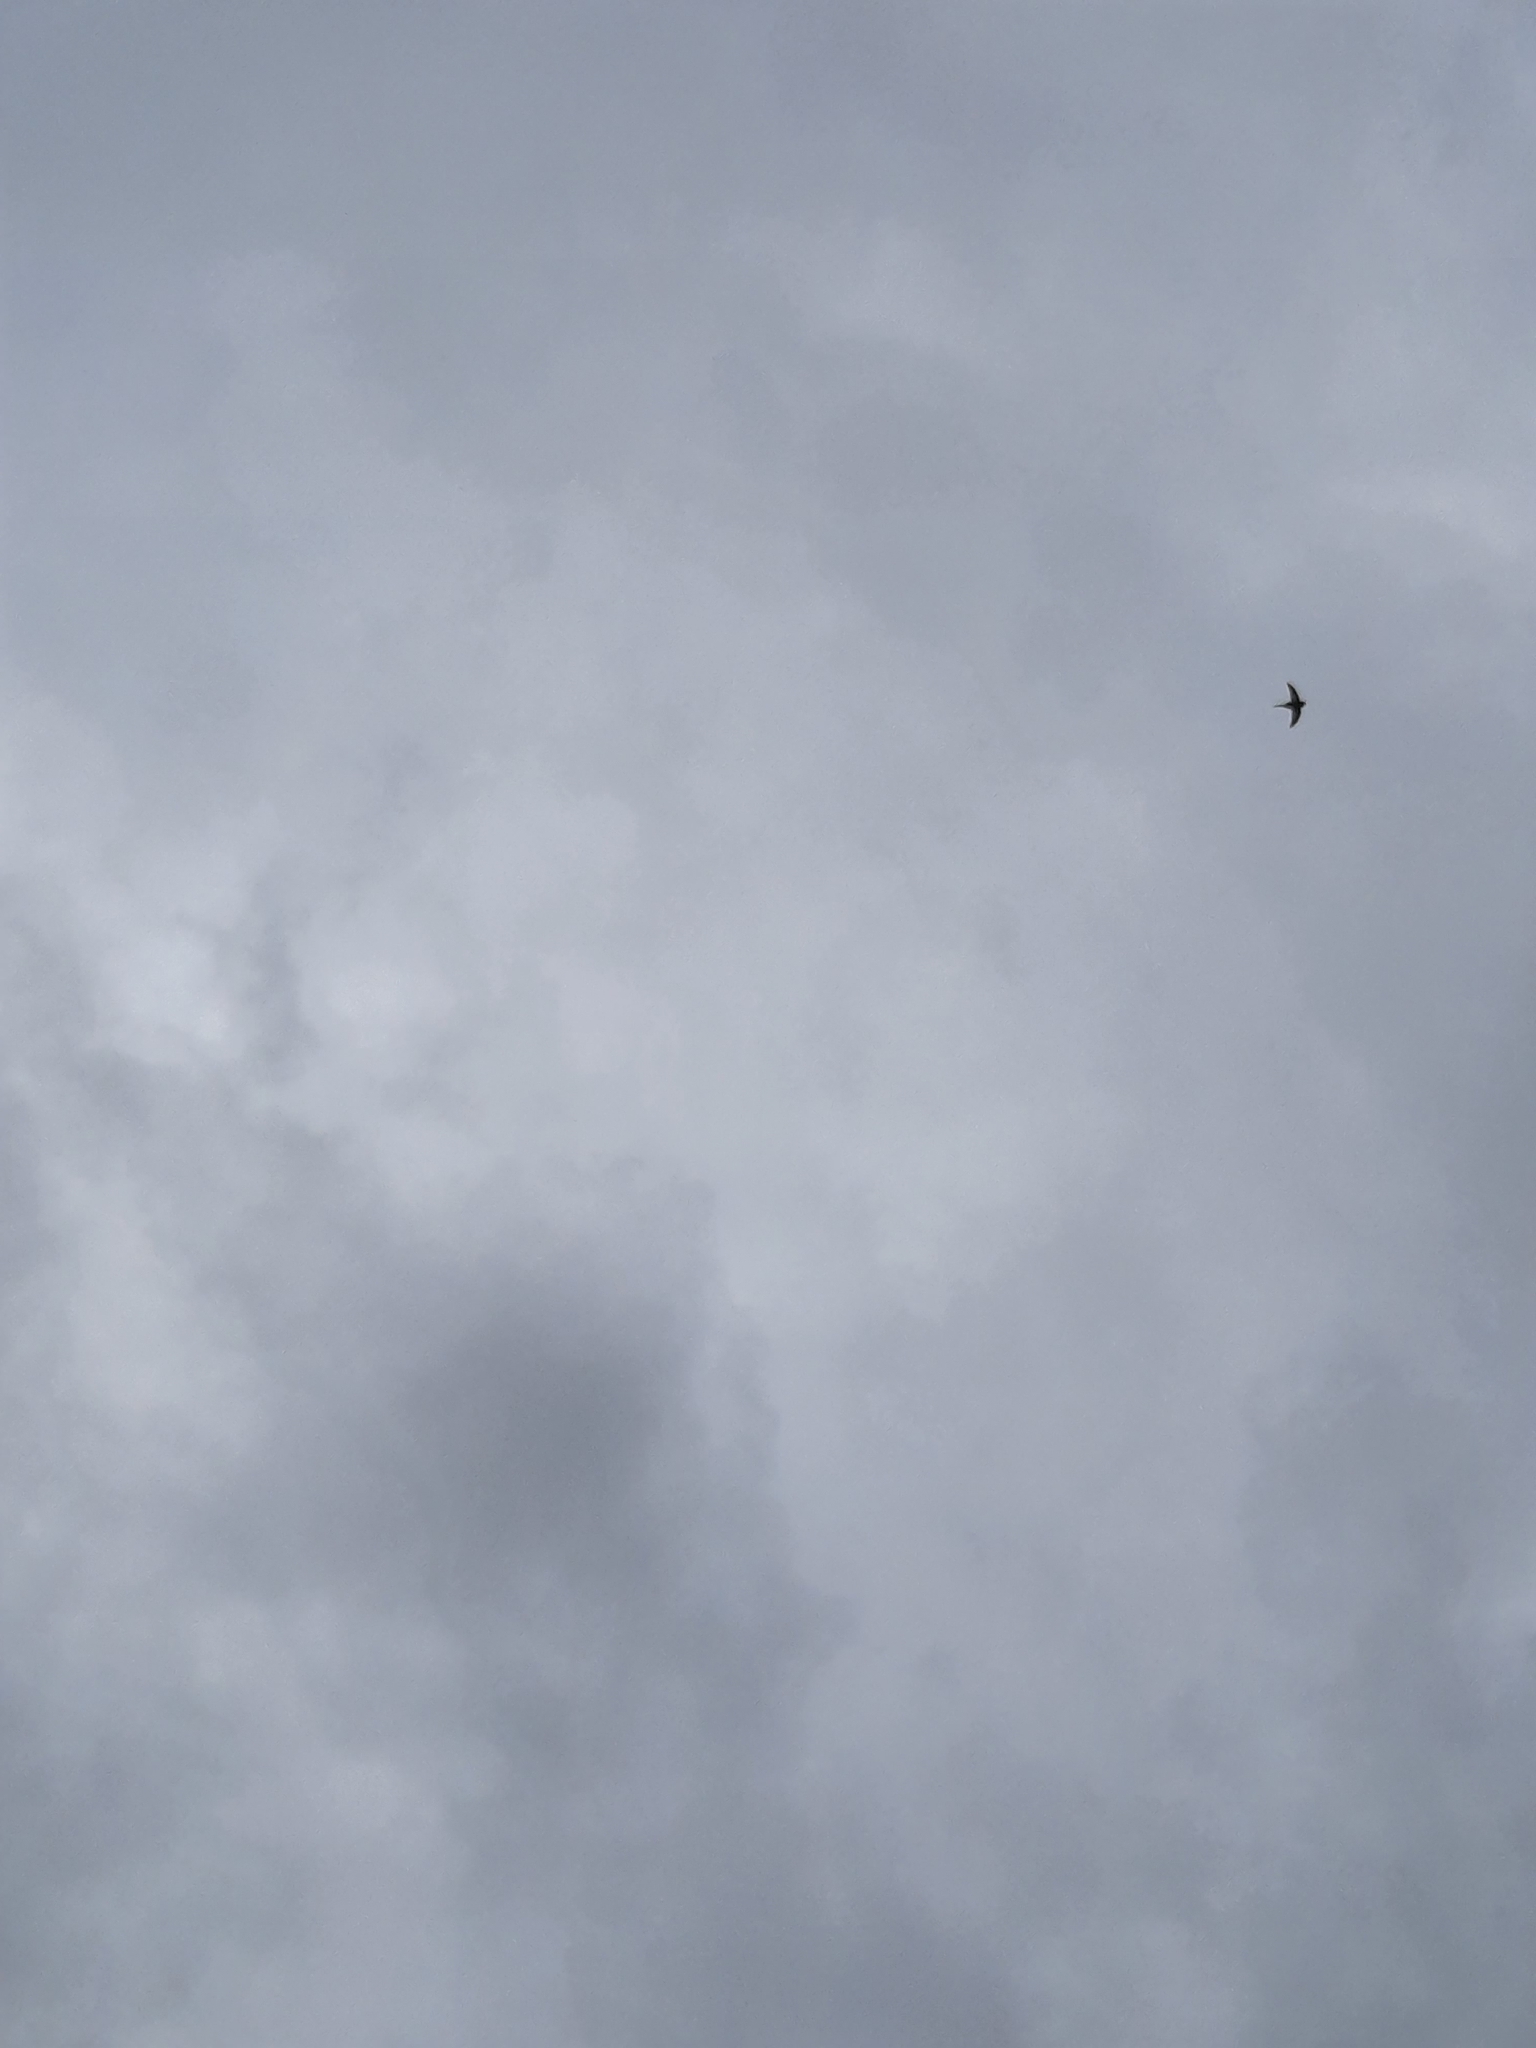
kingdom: Animalia
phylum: Chordata
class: Aves
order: Apodiformes
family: Apodidae
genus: Apus
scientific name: Apus apus
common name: Common swift
